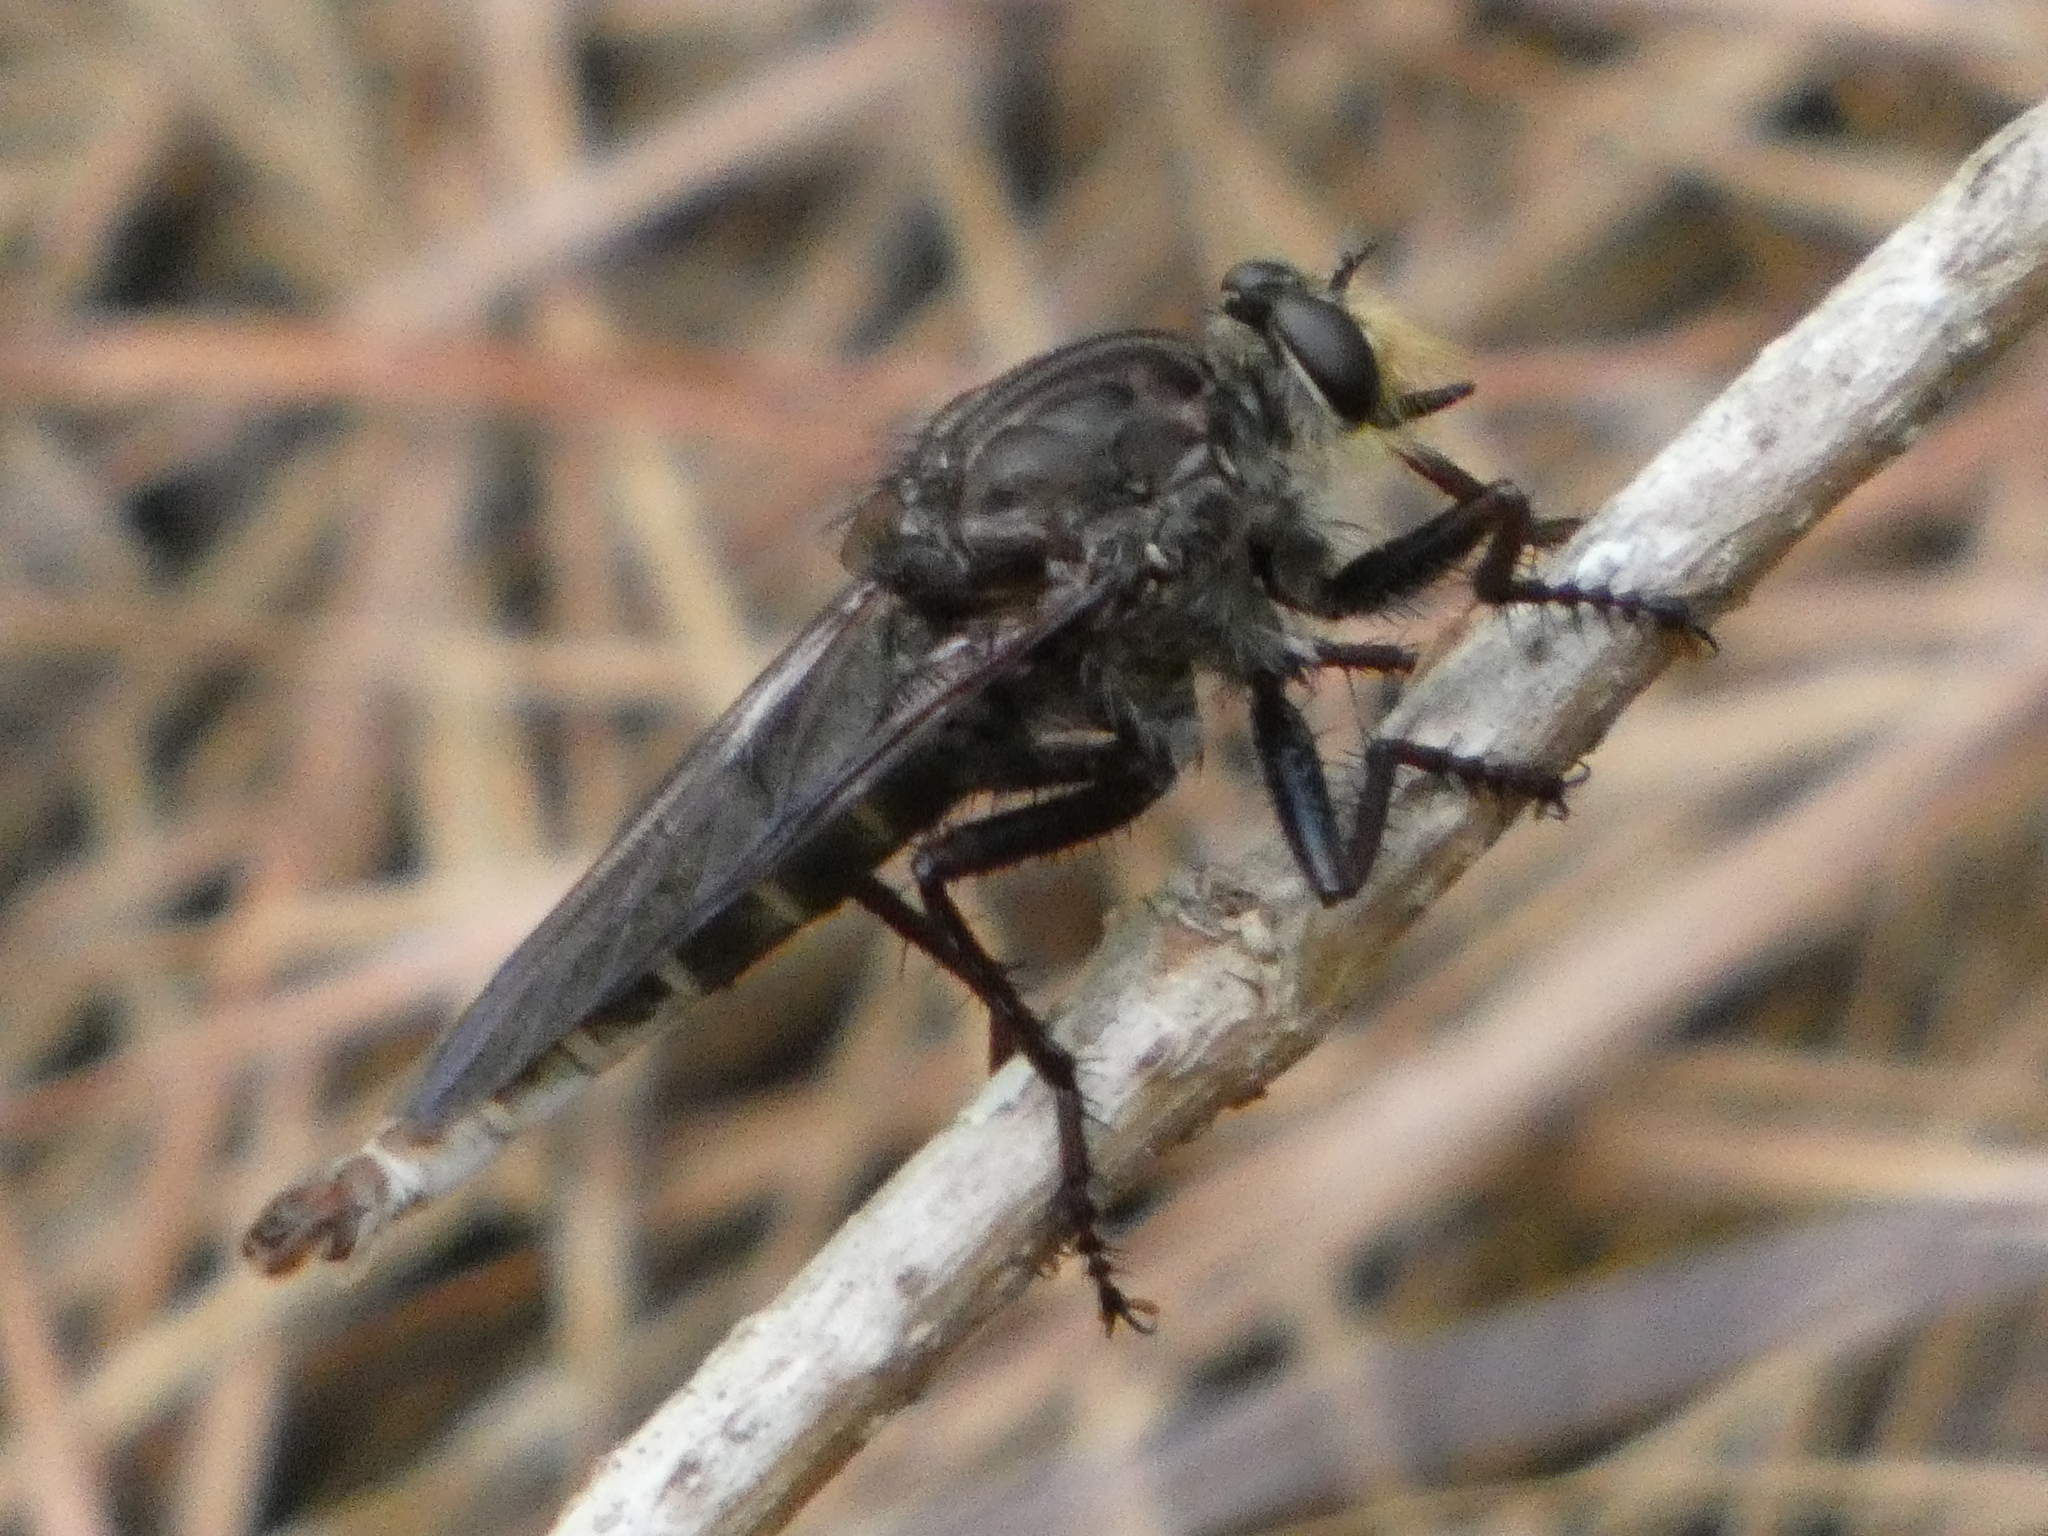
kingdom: Animalia
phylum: Arthropoda
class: Insecta
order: Diptera
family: Asilidae
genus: Proctacanthus
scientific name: Proctacanthus nigriventris
